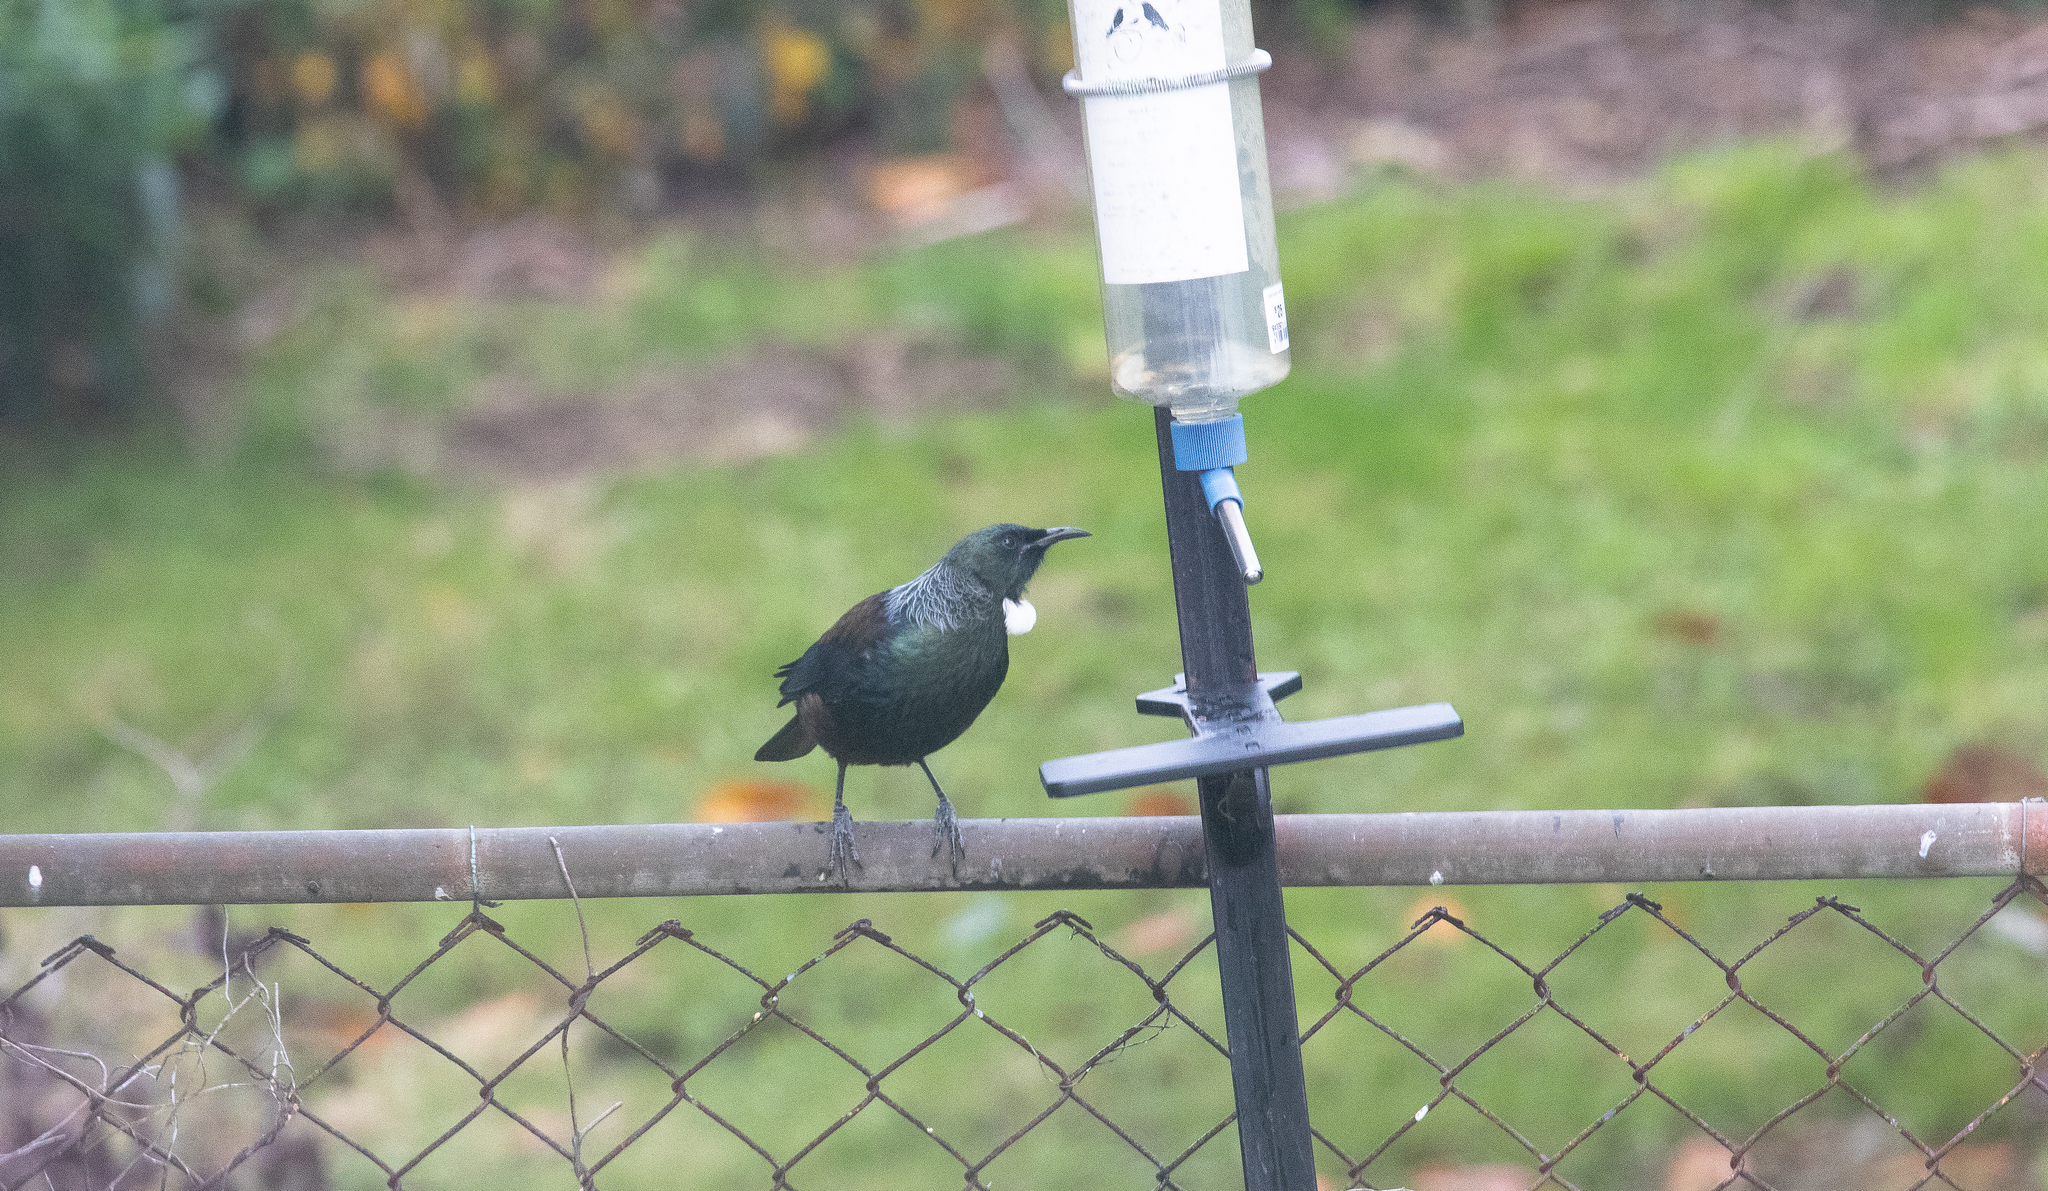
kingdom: Animalia
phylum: Chordata
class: Aves
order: Passeriformes
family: Meliphagidae
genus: Prosthemadera
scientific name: Prosthemadera novaeseelandiae
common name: Tui
